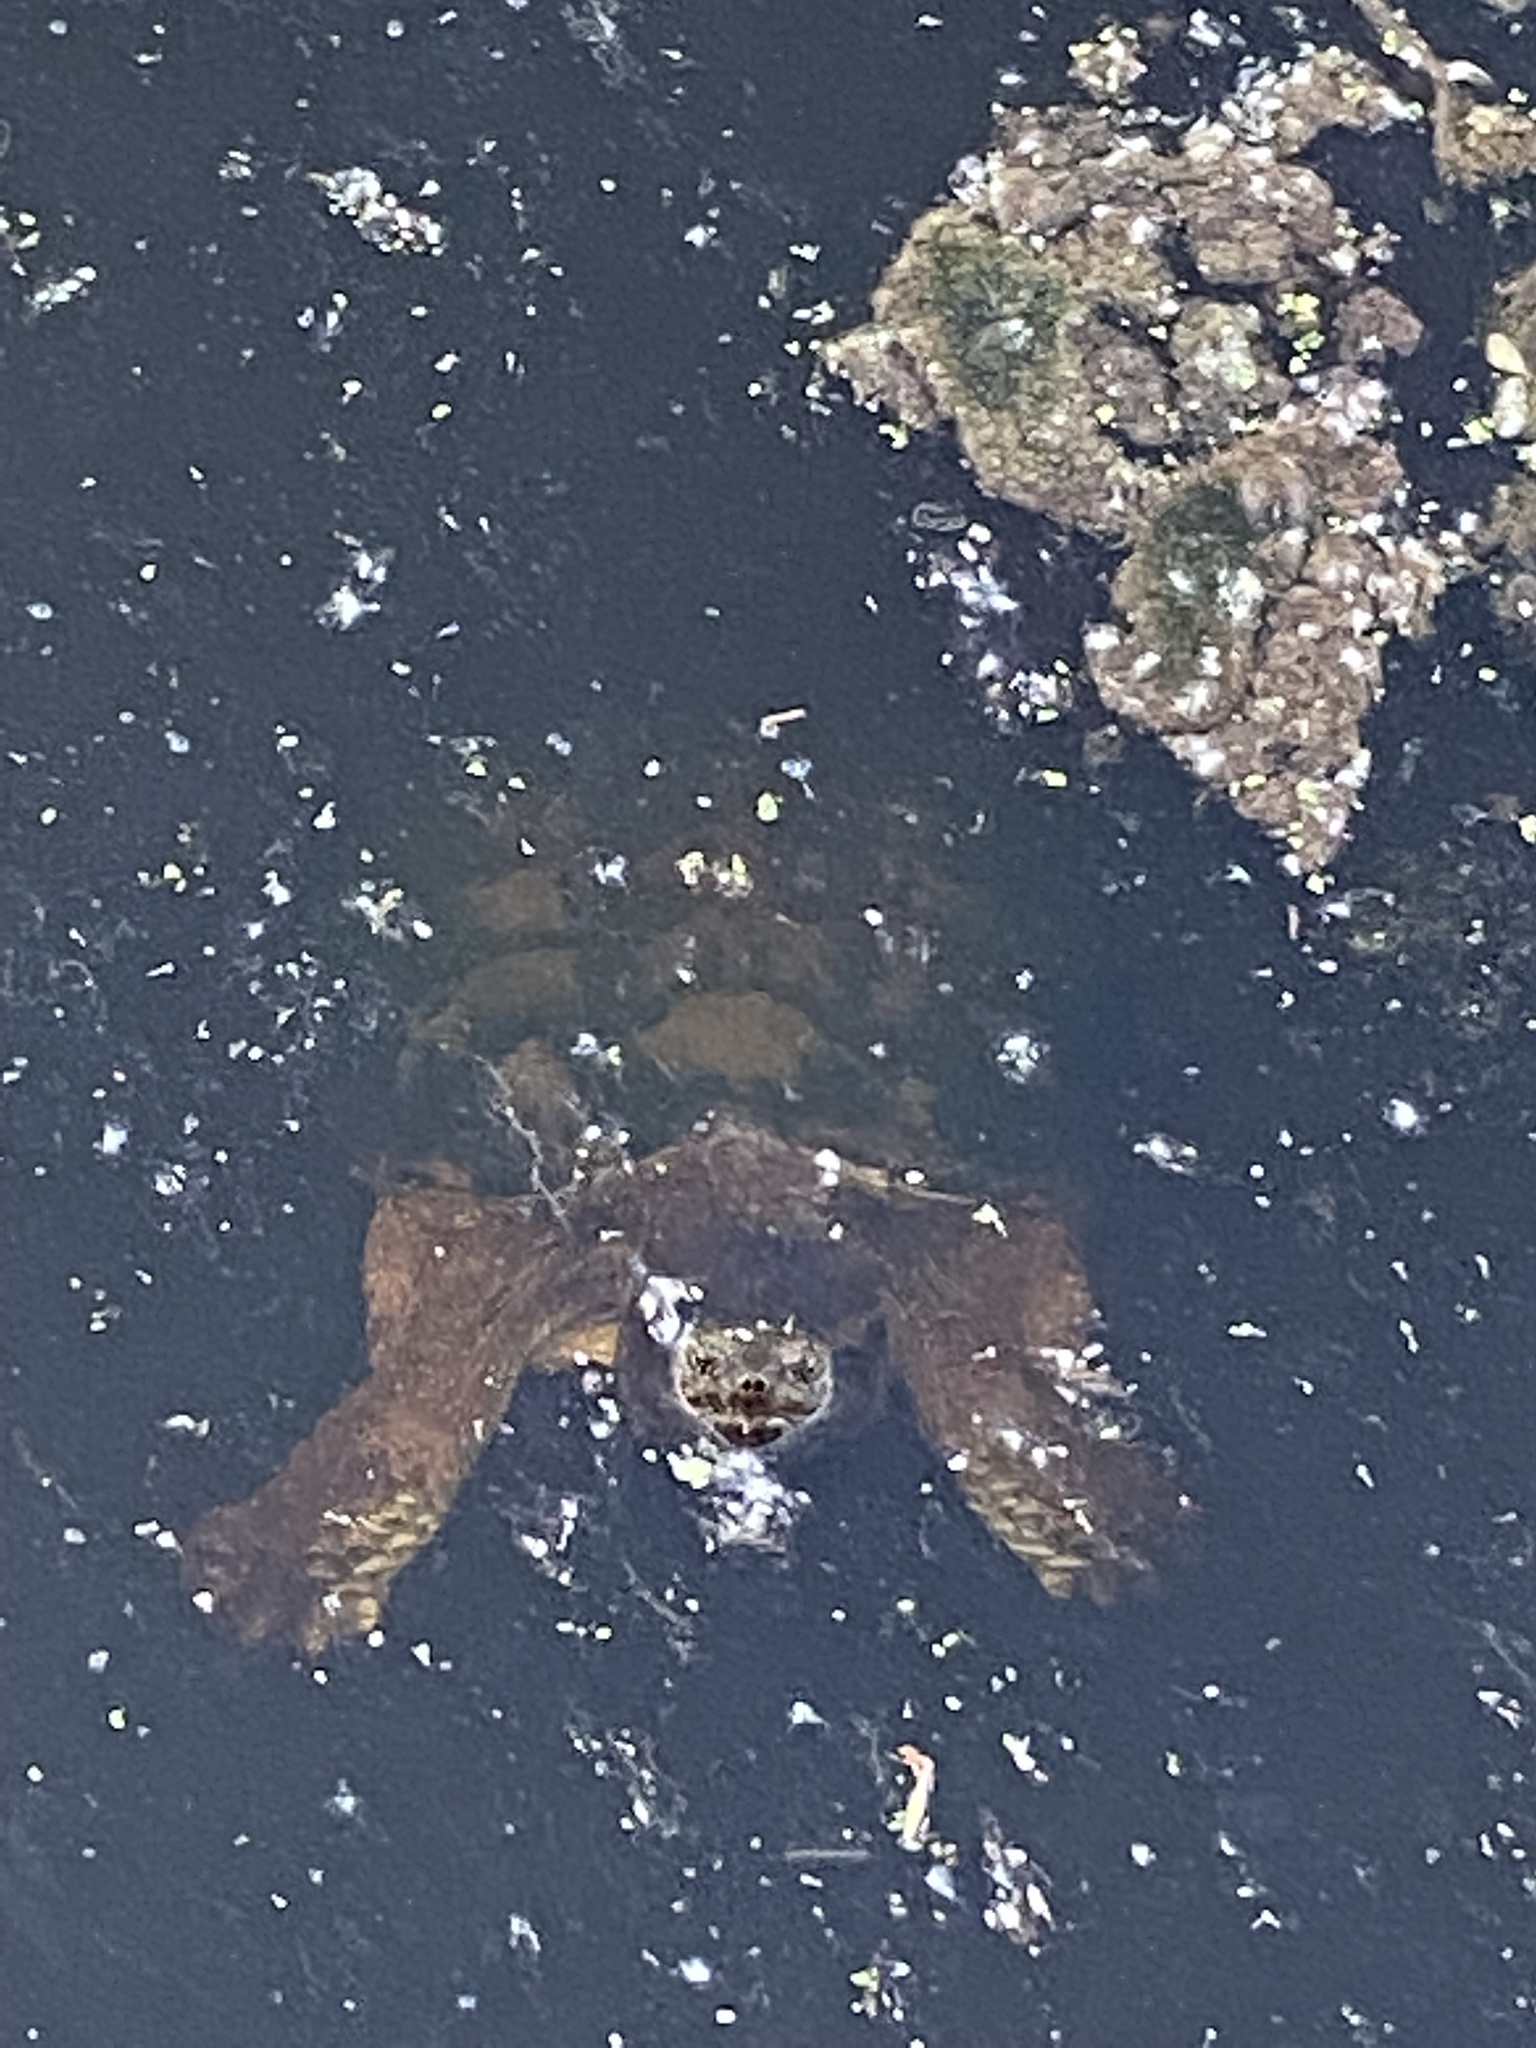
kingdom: Animalia
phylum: Chordata
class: Testudines
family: Chelydridae
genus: Chelydra
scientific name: Chelydra serpentina
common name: Common snapping turtle
